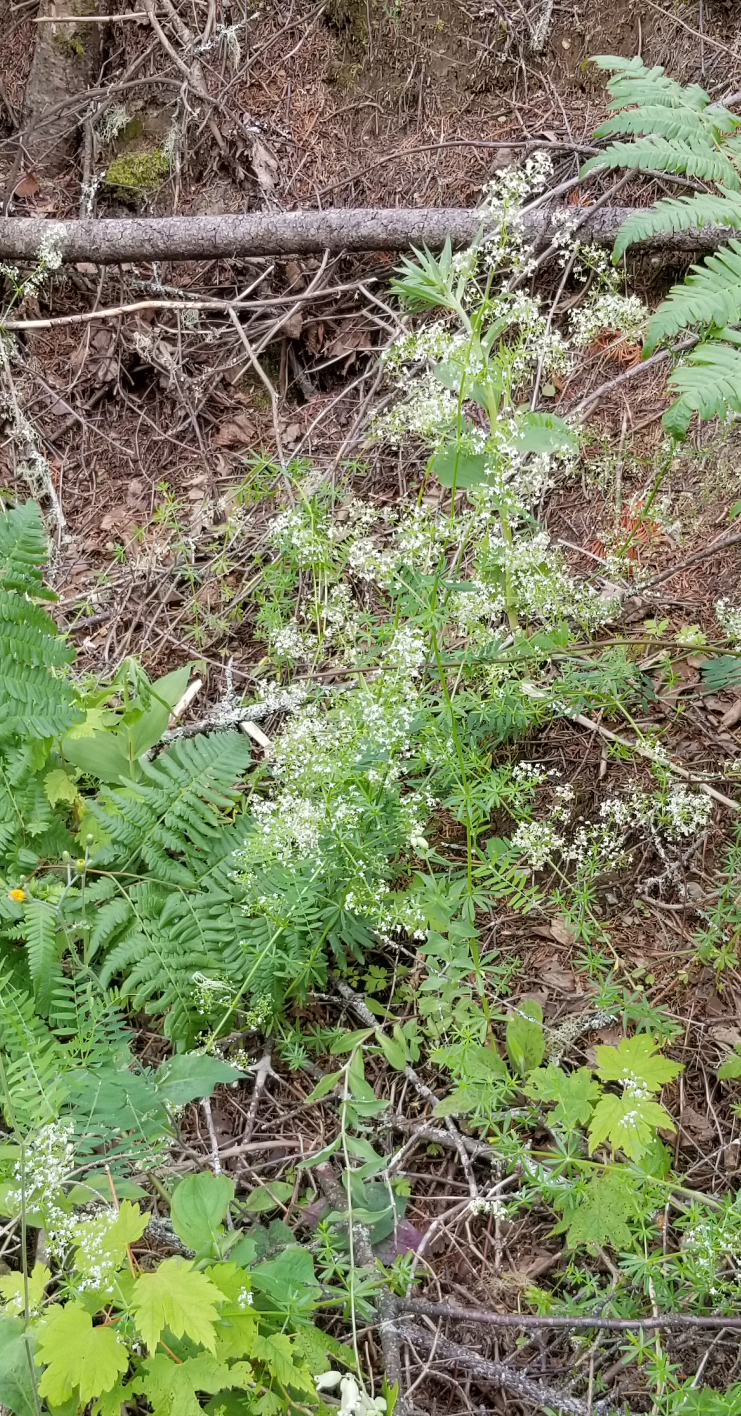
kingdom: Plantae
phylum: Tracheophyta
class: Magnoliopsida
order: Gentianales
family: Rubiaceae
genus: Galium
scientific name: Galium mollugo
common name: Hedge bedstraw
